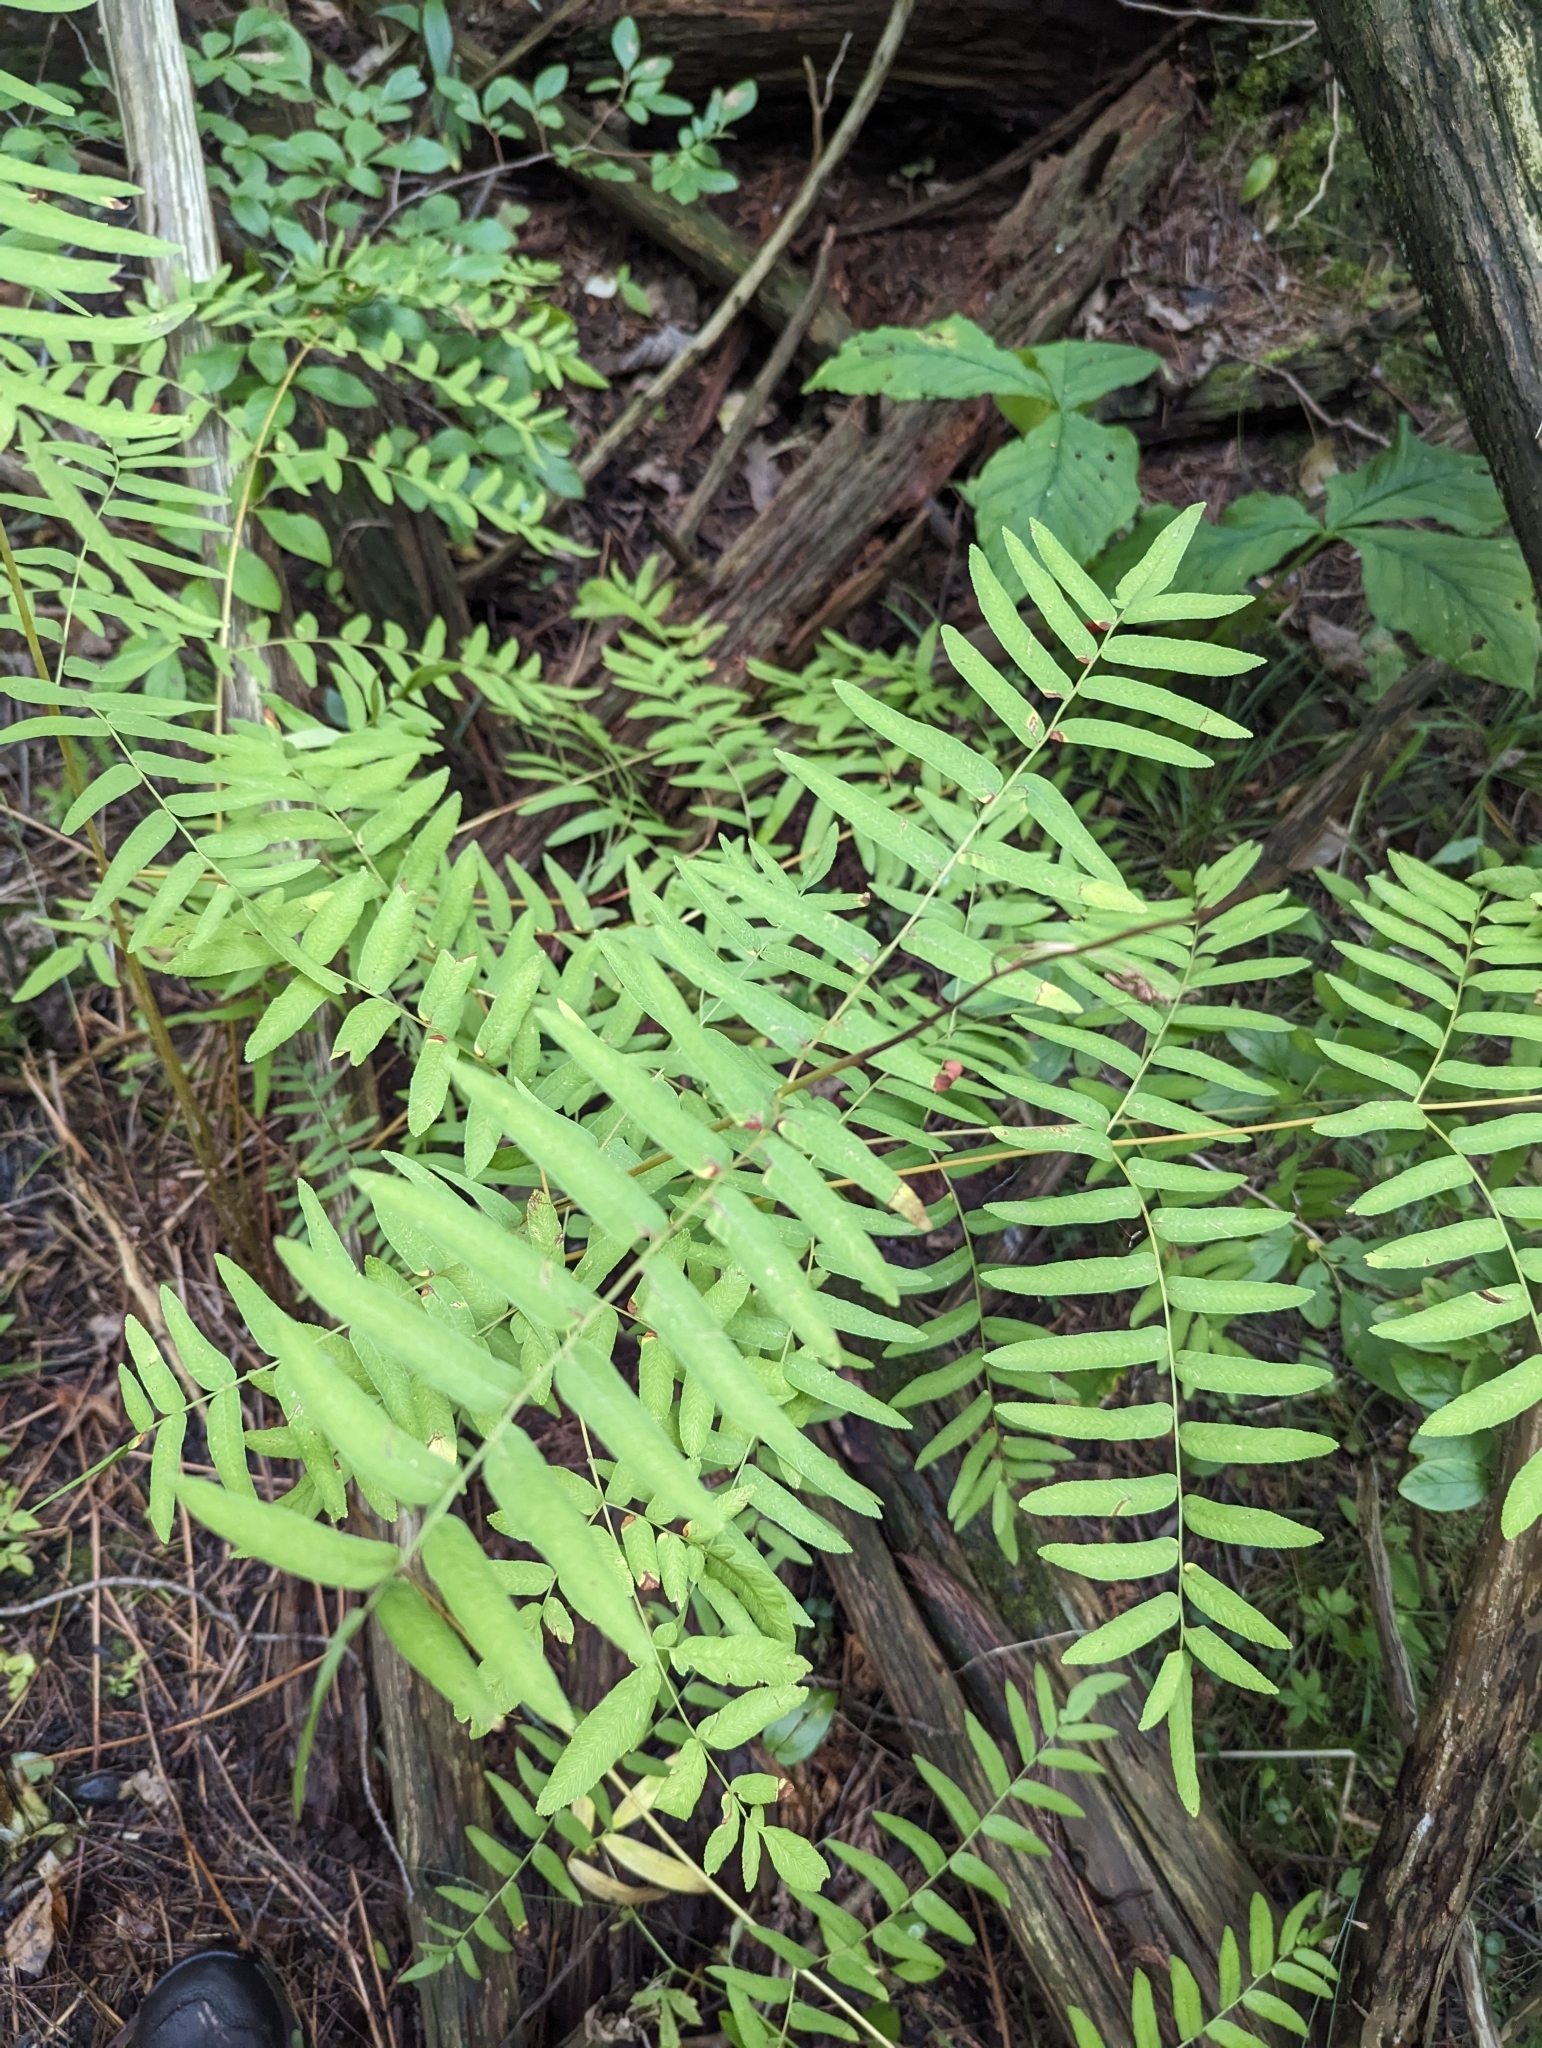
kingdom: Plantae
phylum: Tracheophyta
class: Polypodiopsida
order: Osmundales
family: Osmundaceae
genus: Osmunda
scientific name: Osmunda spectabilis
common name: American royal fern
